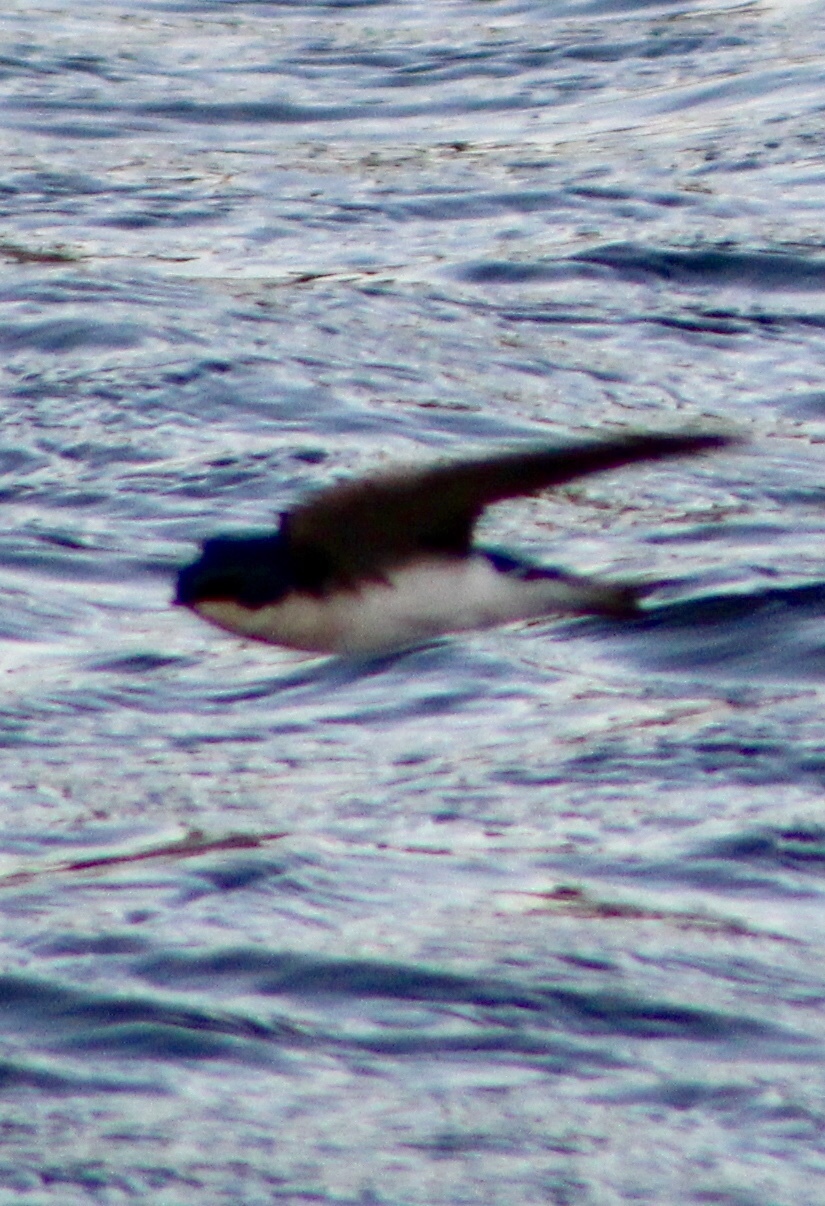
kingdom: Animalia
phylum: Chordata
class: Aves
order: Passeriformes
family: Hirundinidae
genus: Tachycineta
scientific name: Tachycineta bicolor
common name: Tree swallow
